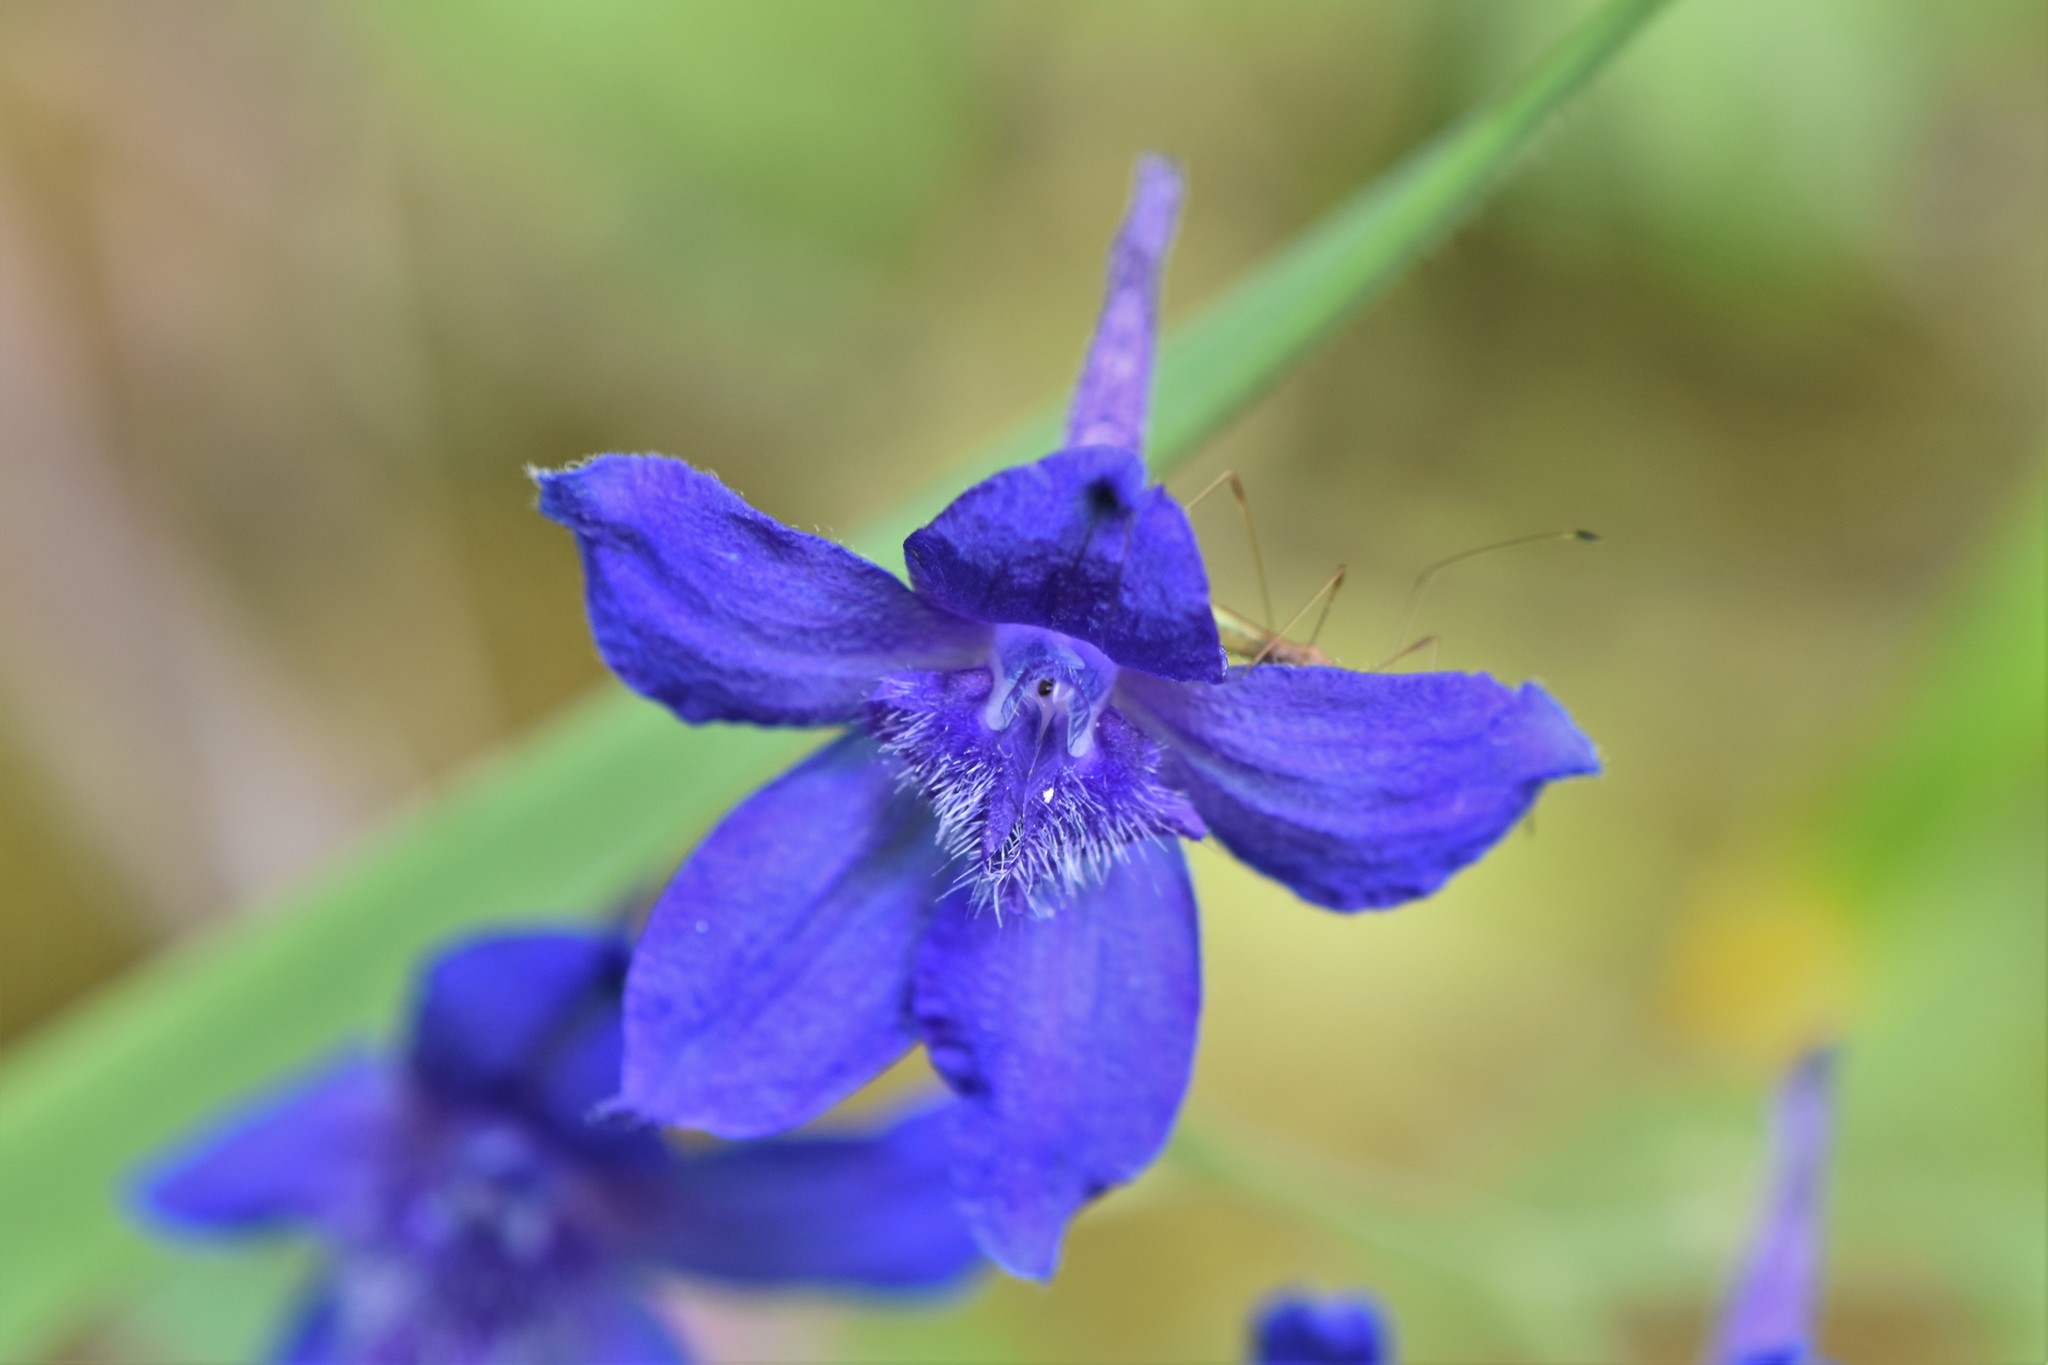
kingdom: Plantae
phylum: Tracheophyta
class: Magnoliopsida
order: Ranunculales
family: Ranunculaceae
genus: Delphinium
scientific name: Delphinium menziesii
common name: Menzies's larkspur
